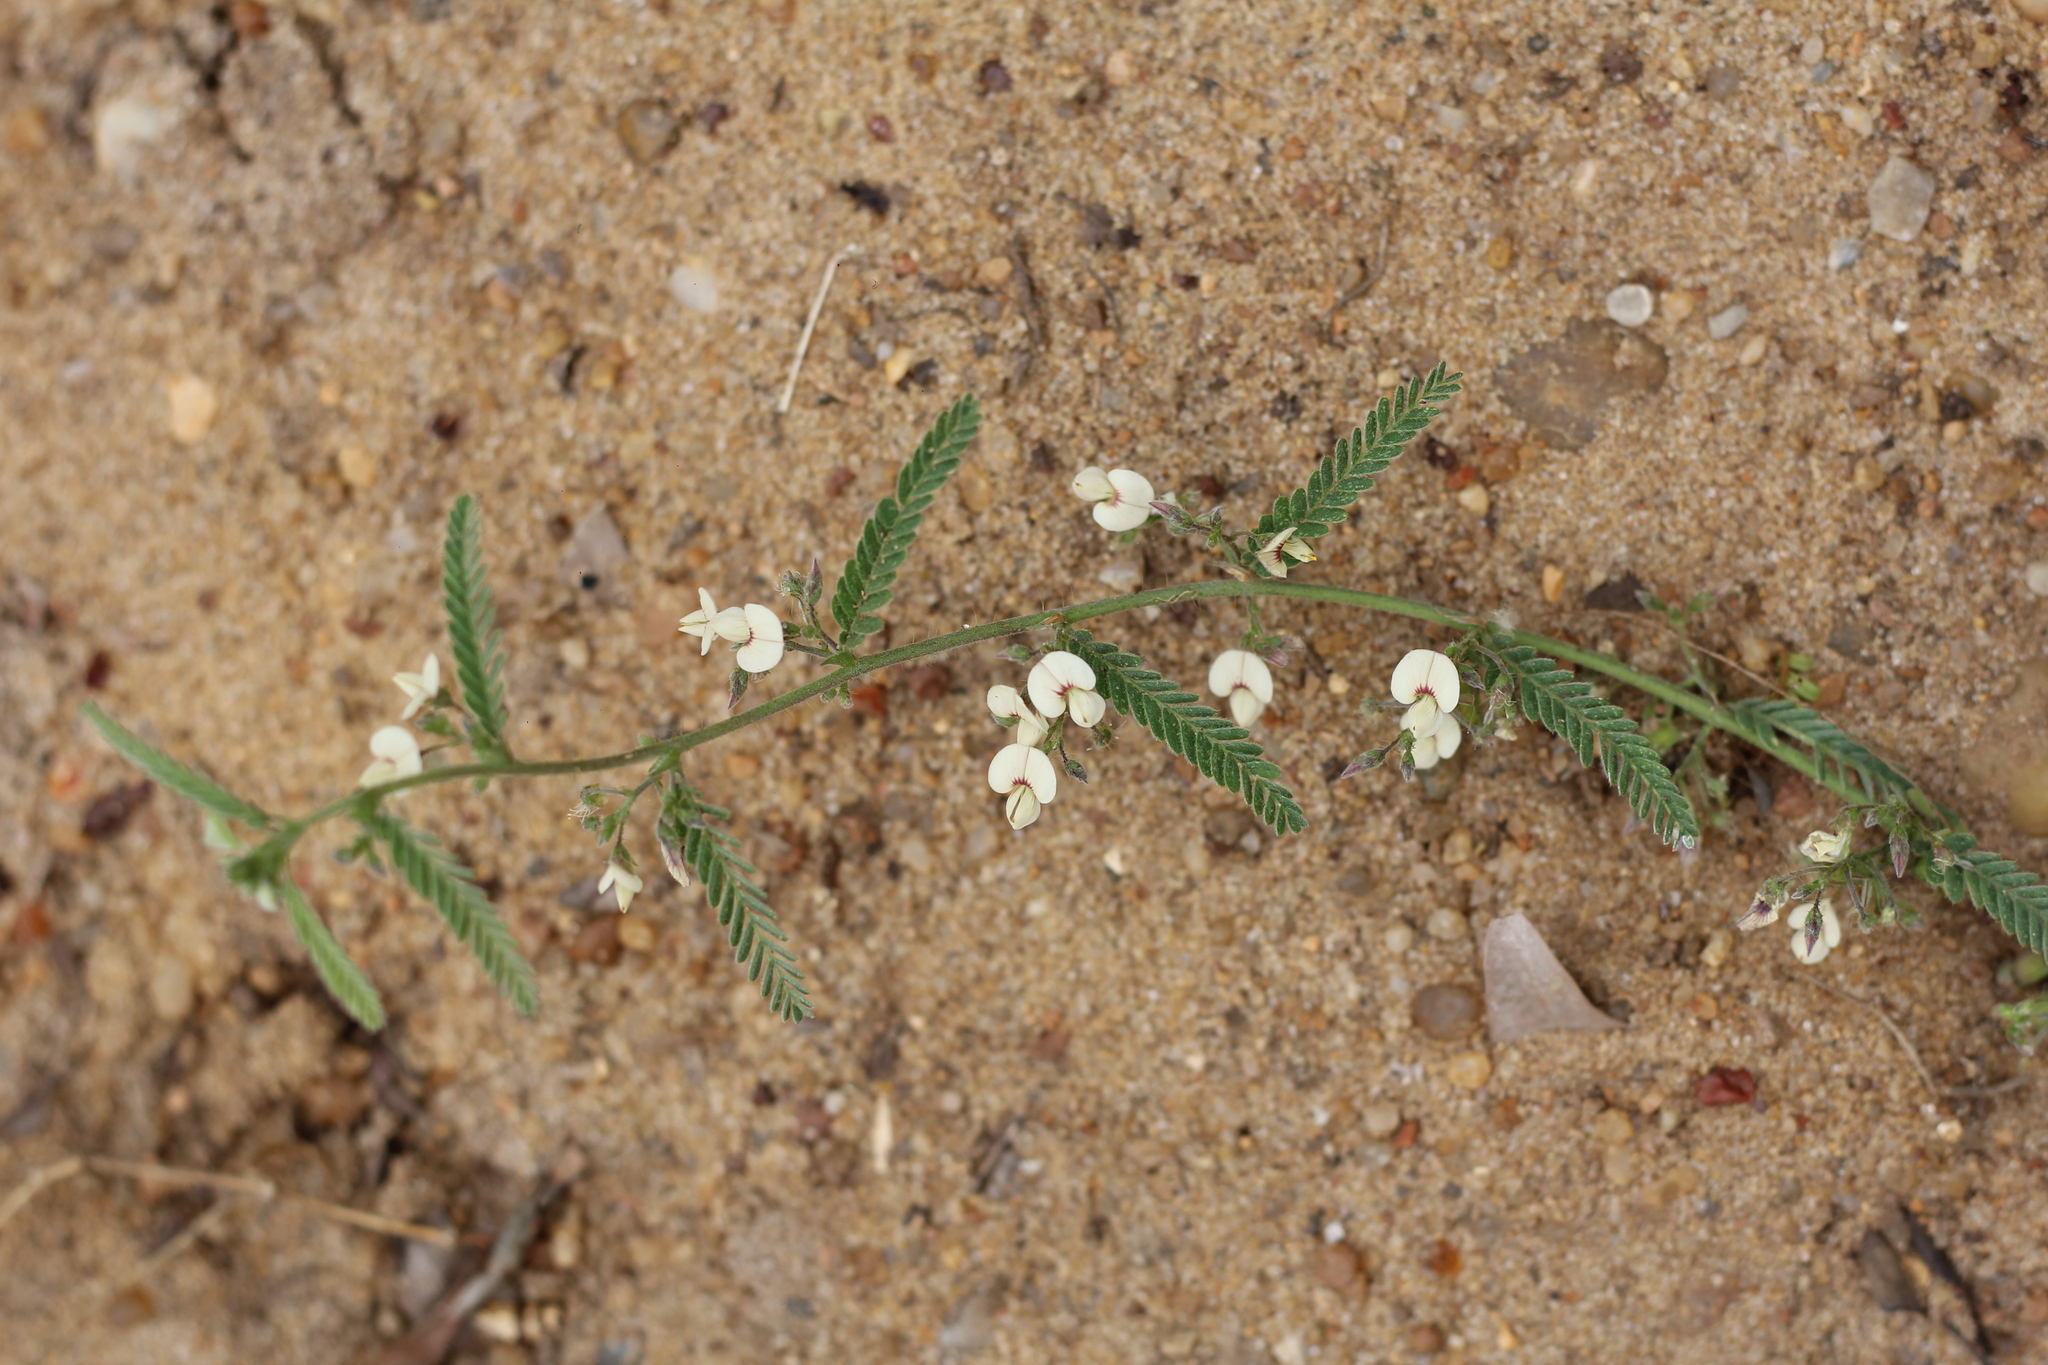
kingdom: Plantae
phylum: Tracheophyta
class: Magnoliopsida
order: Fabales
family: Fabaceae
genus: Ctenodon
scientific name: Ctenodon histrix
